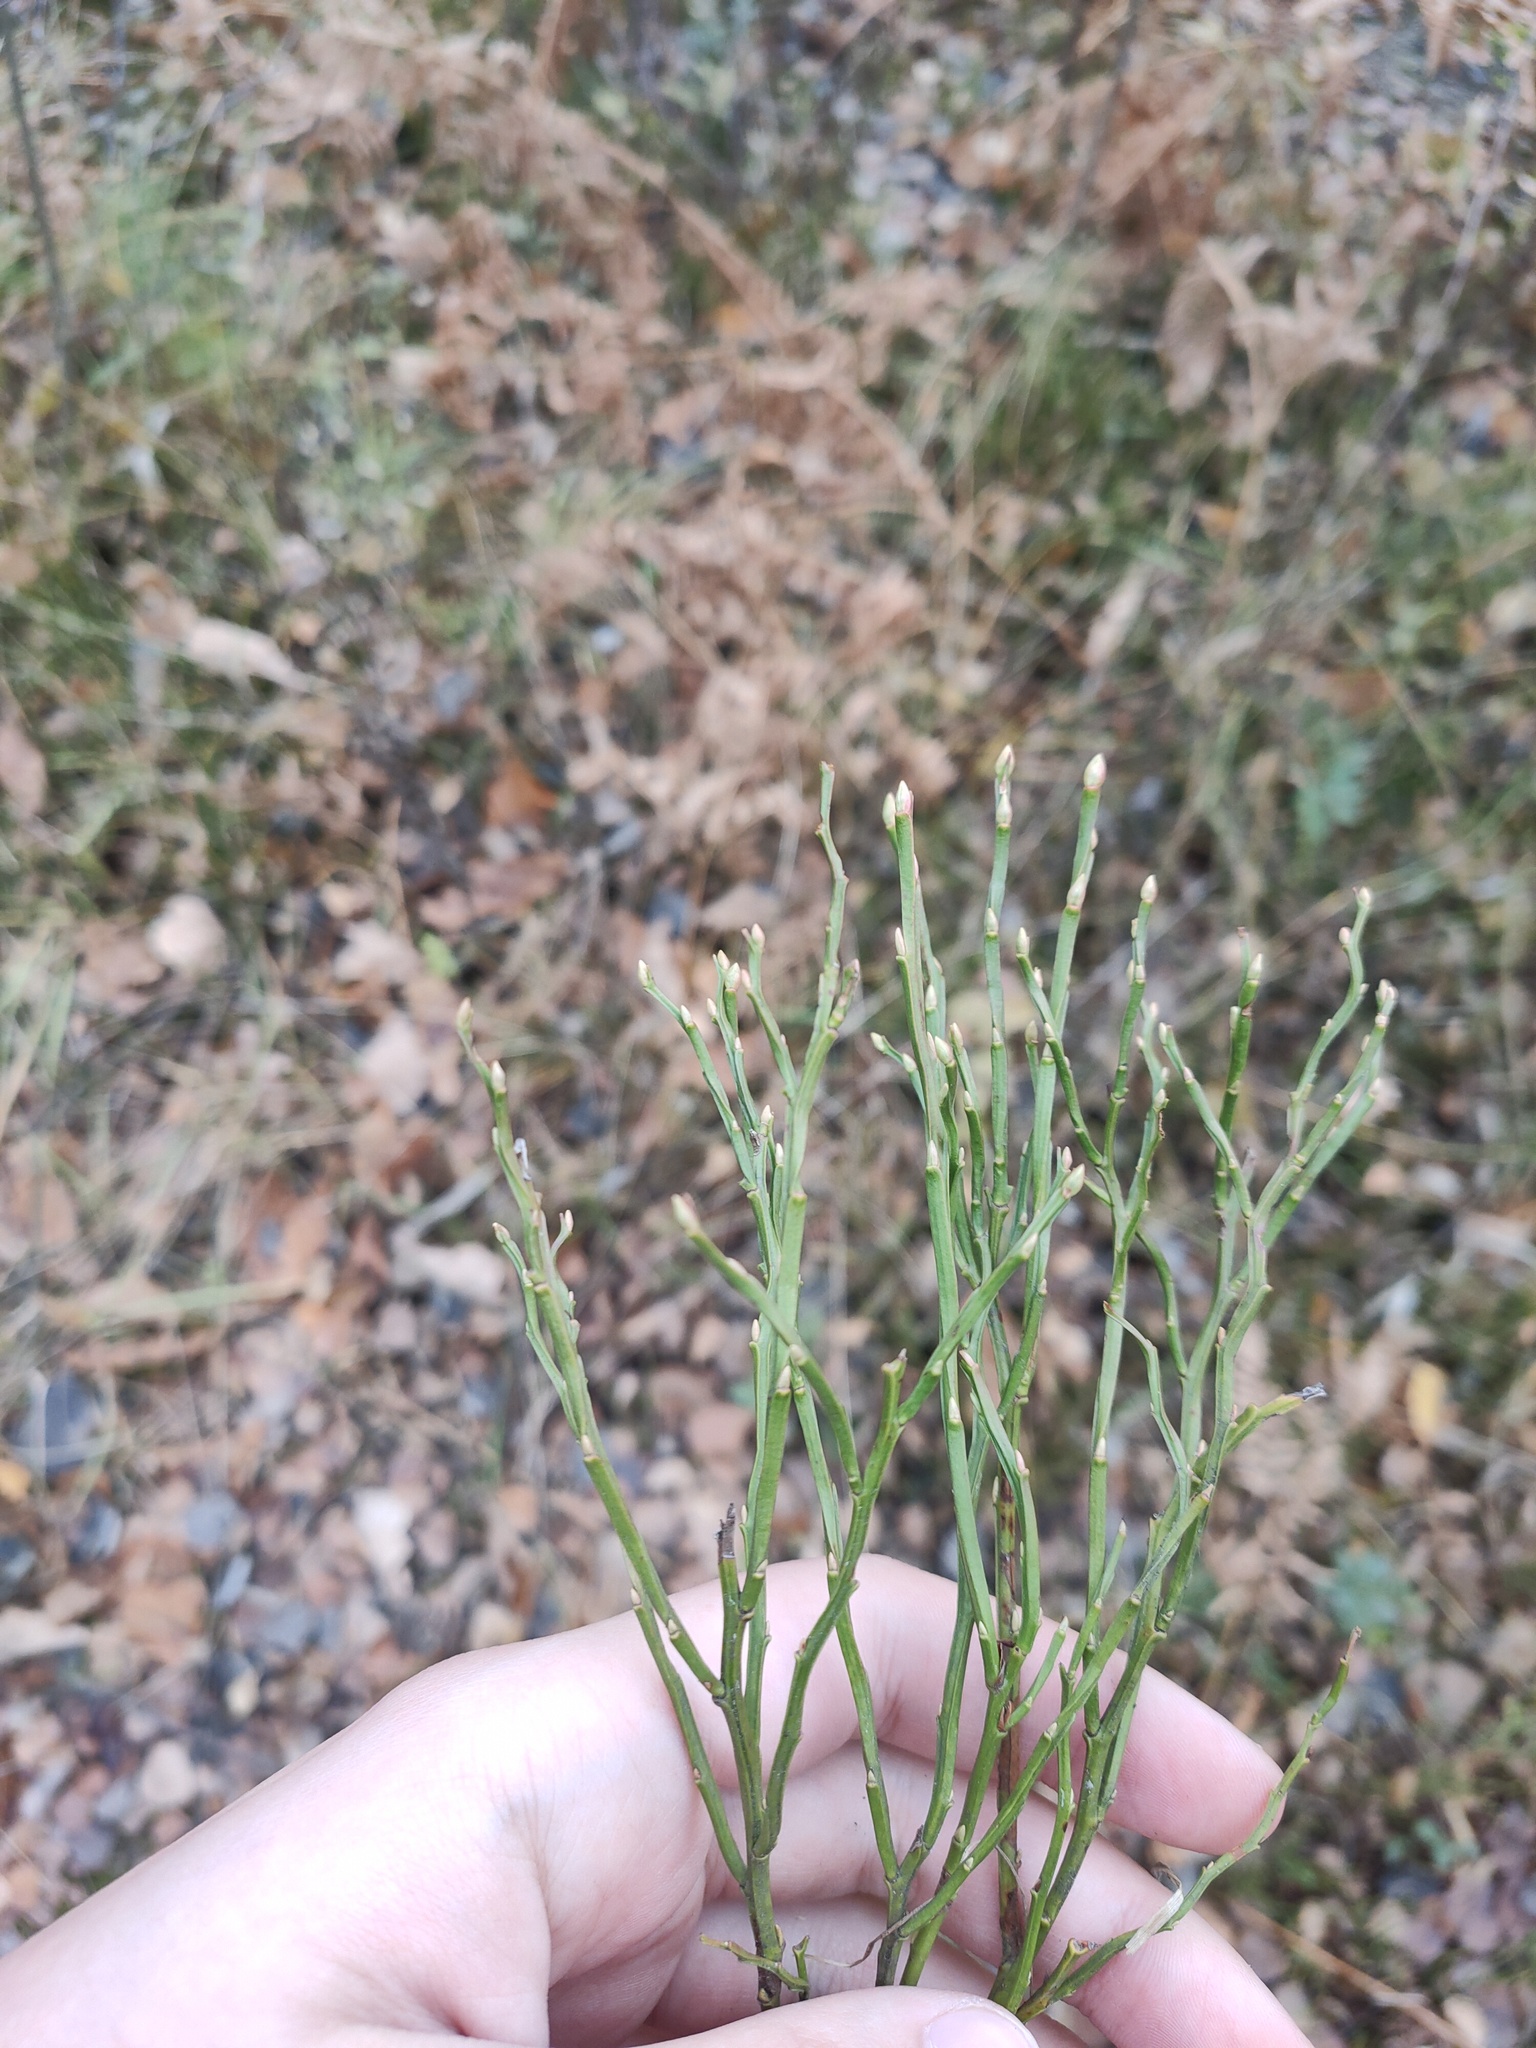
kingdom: Plantae
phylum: Tracheophyta
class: Magnoliopsida
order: Ericales
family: Ericaceae
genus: Vaccinium
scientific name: Vaccinium myrtillus
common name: Bilberry
